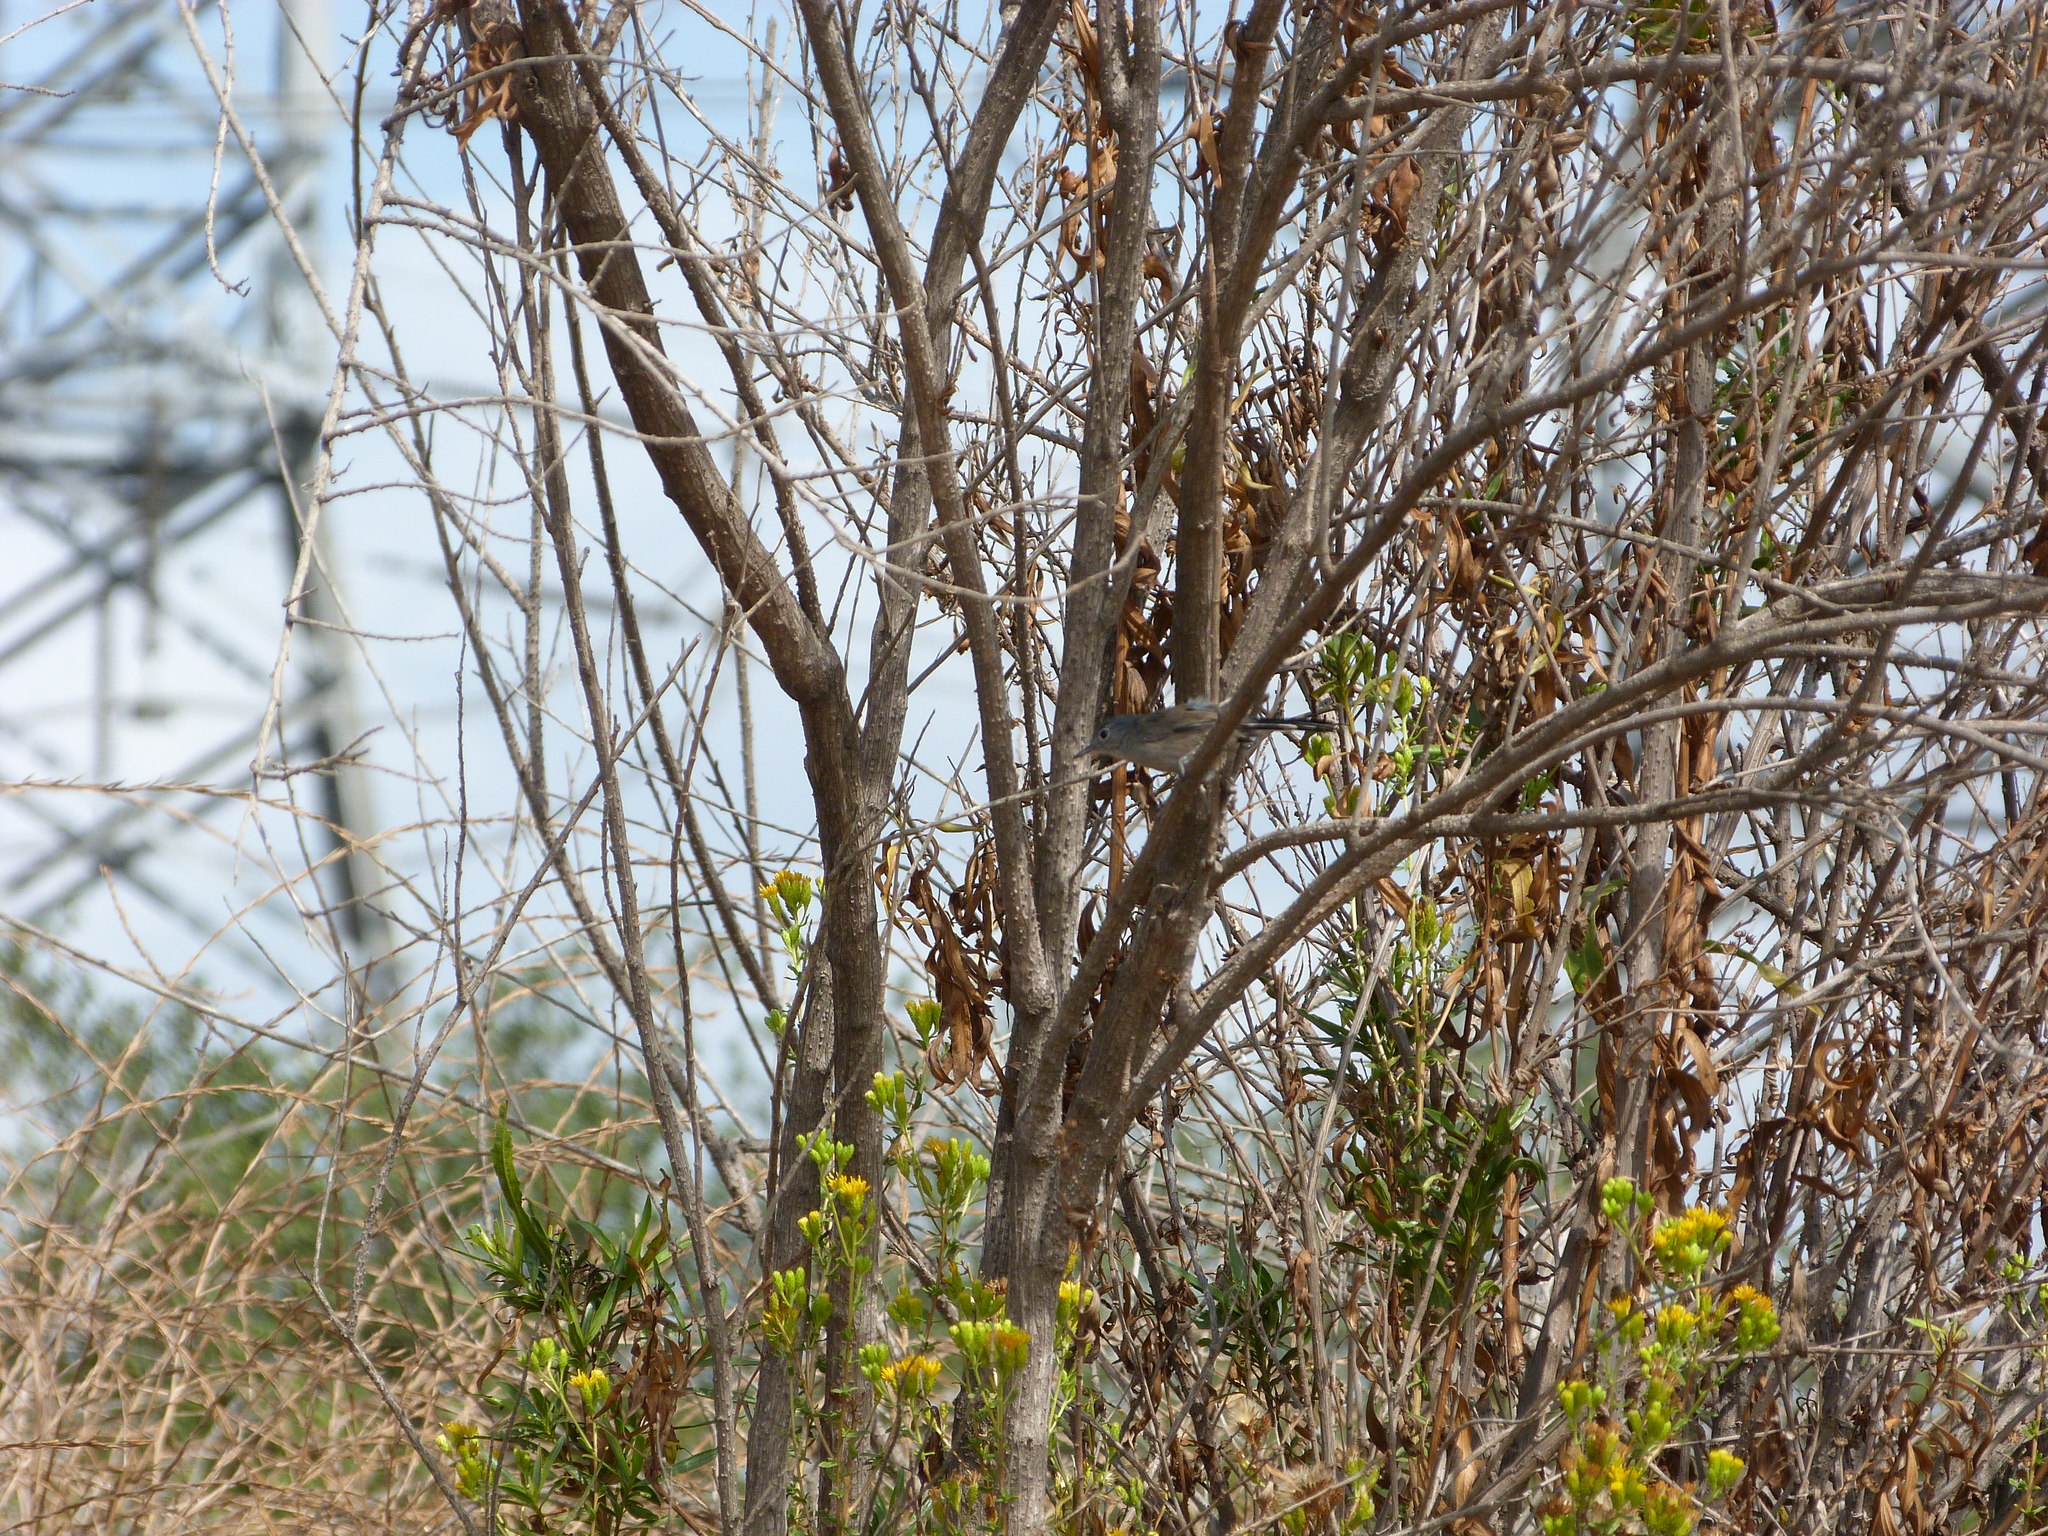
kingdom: Animalia
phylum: Chordata
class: Aves
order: Passeriformes
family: Polioptilidae
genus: Polioptila
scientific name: Polioptila californica
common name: California gnatcatcher
